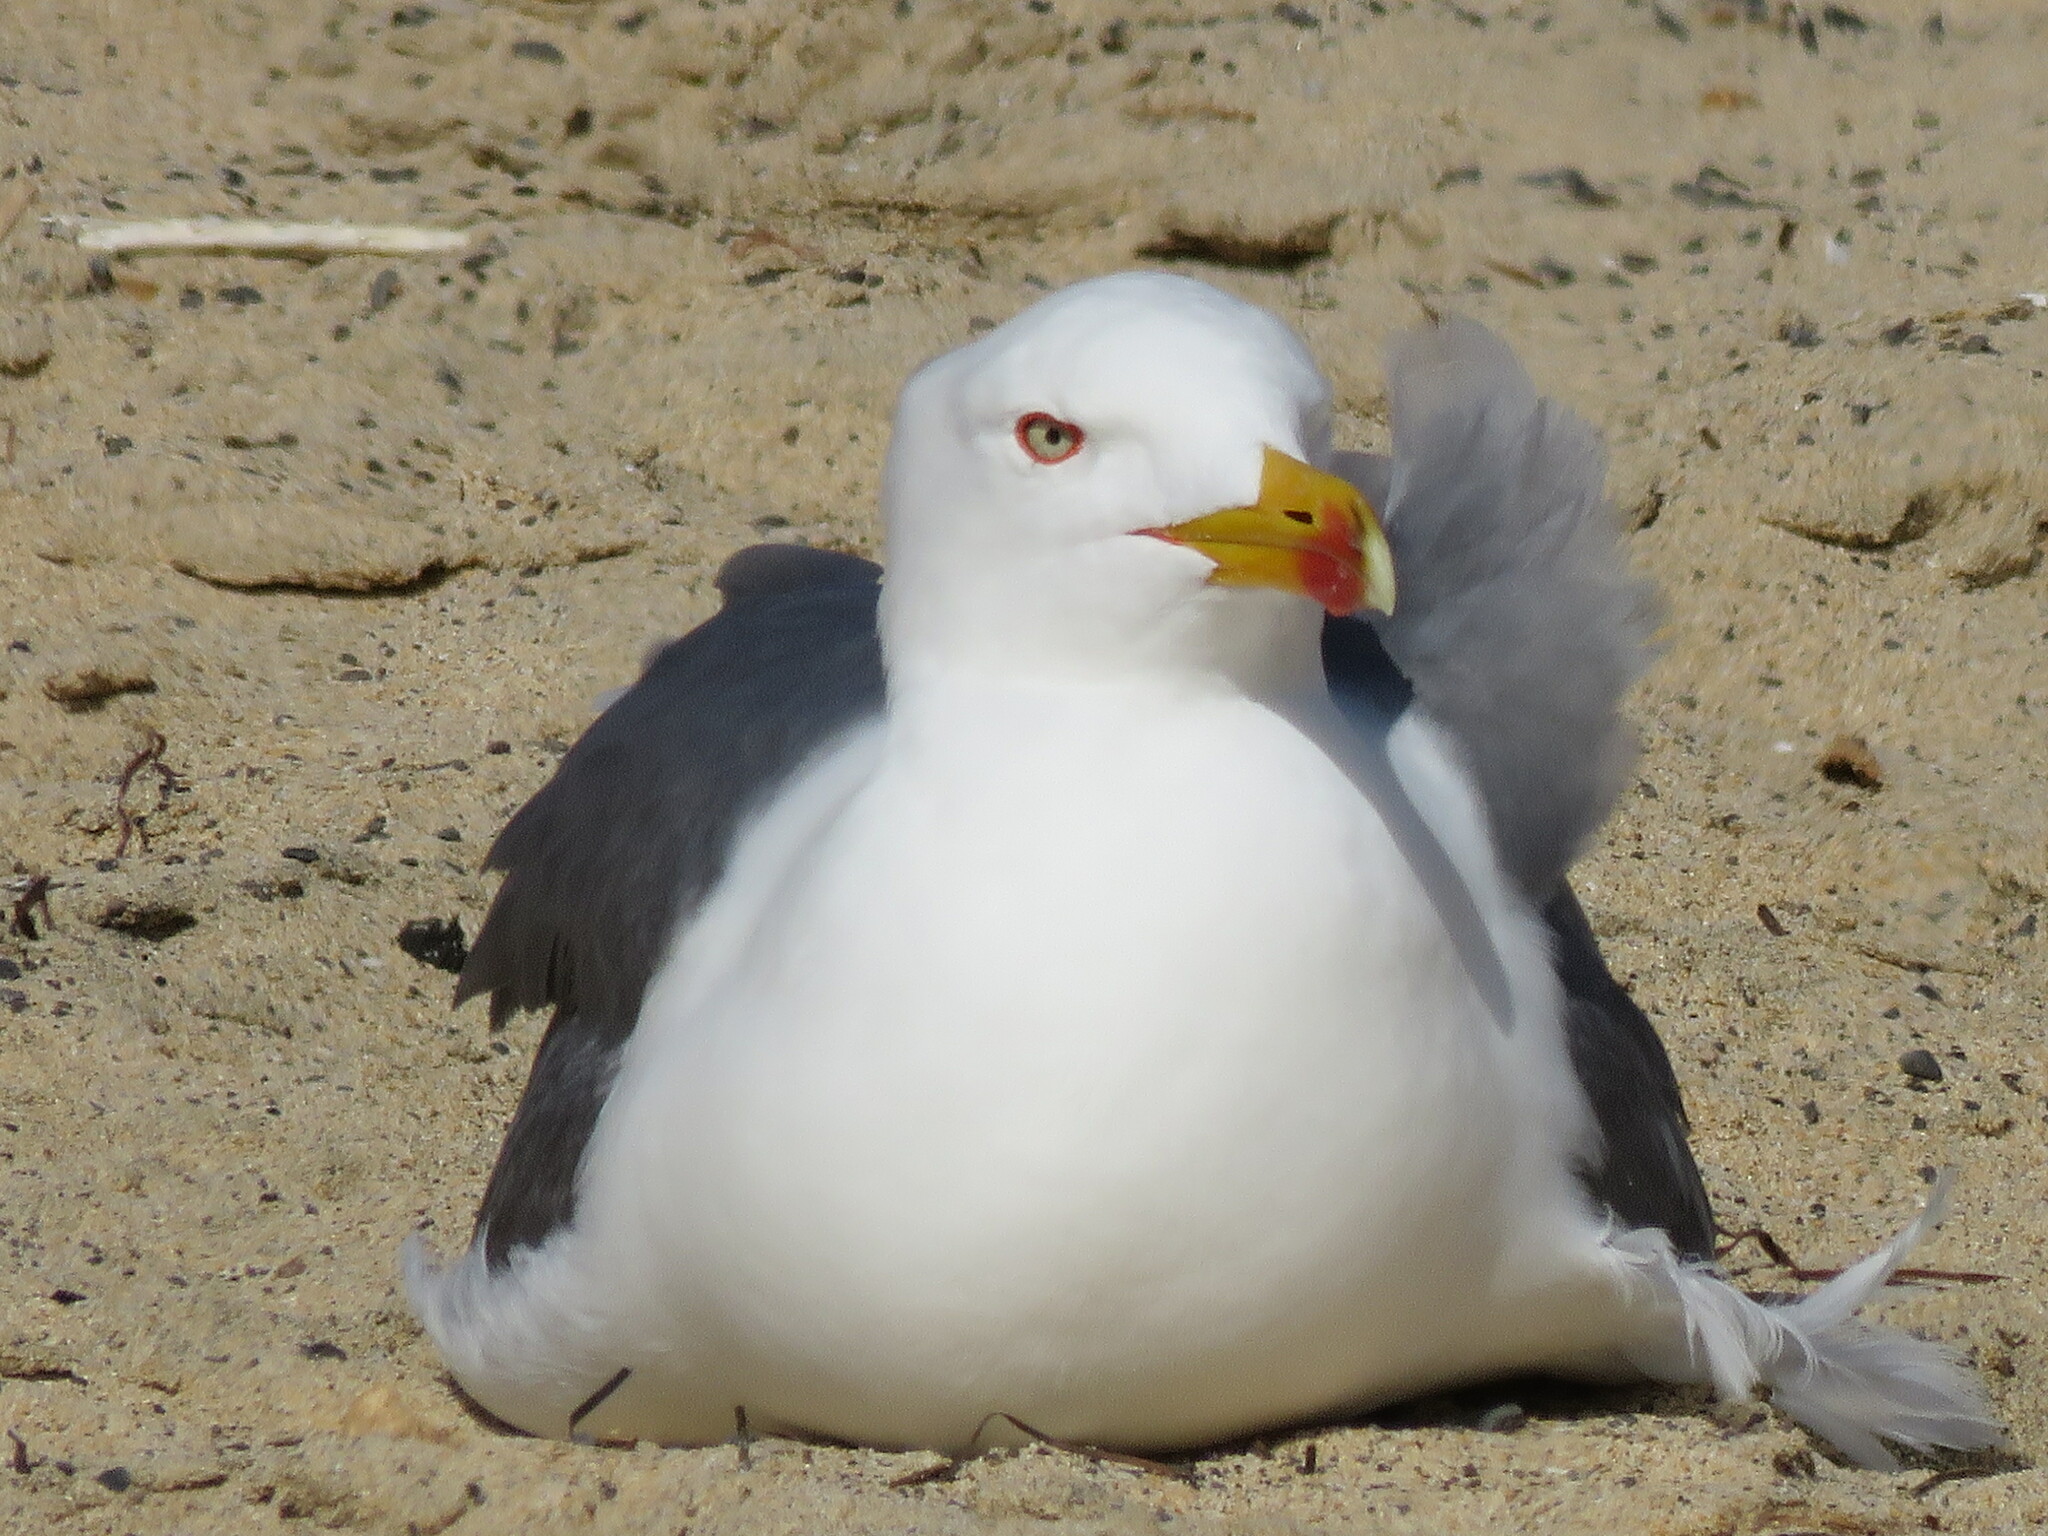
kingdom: Animalia
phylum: Chordata
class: Aves
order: Charadriiformes
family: Laridae
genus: Larus
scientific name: Larus michahellis
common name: Yellow-legged gull
